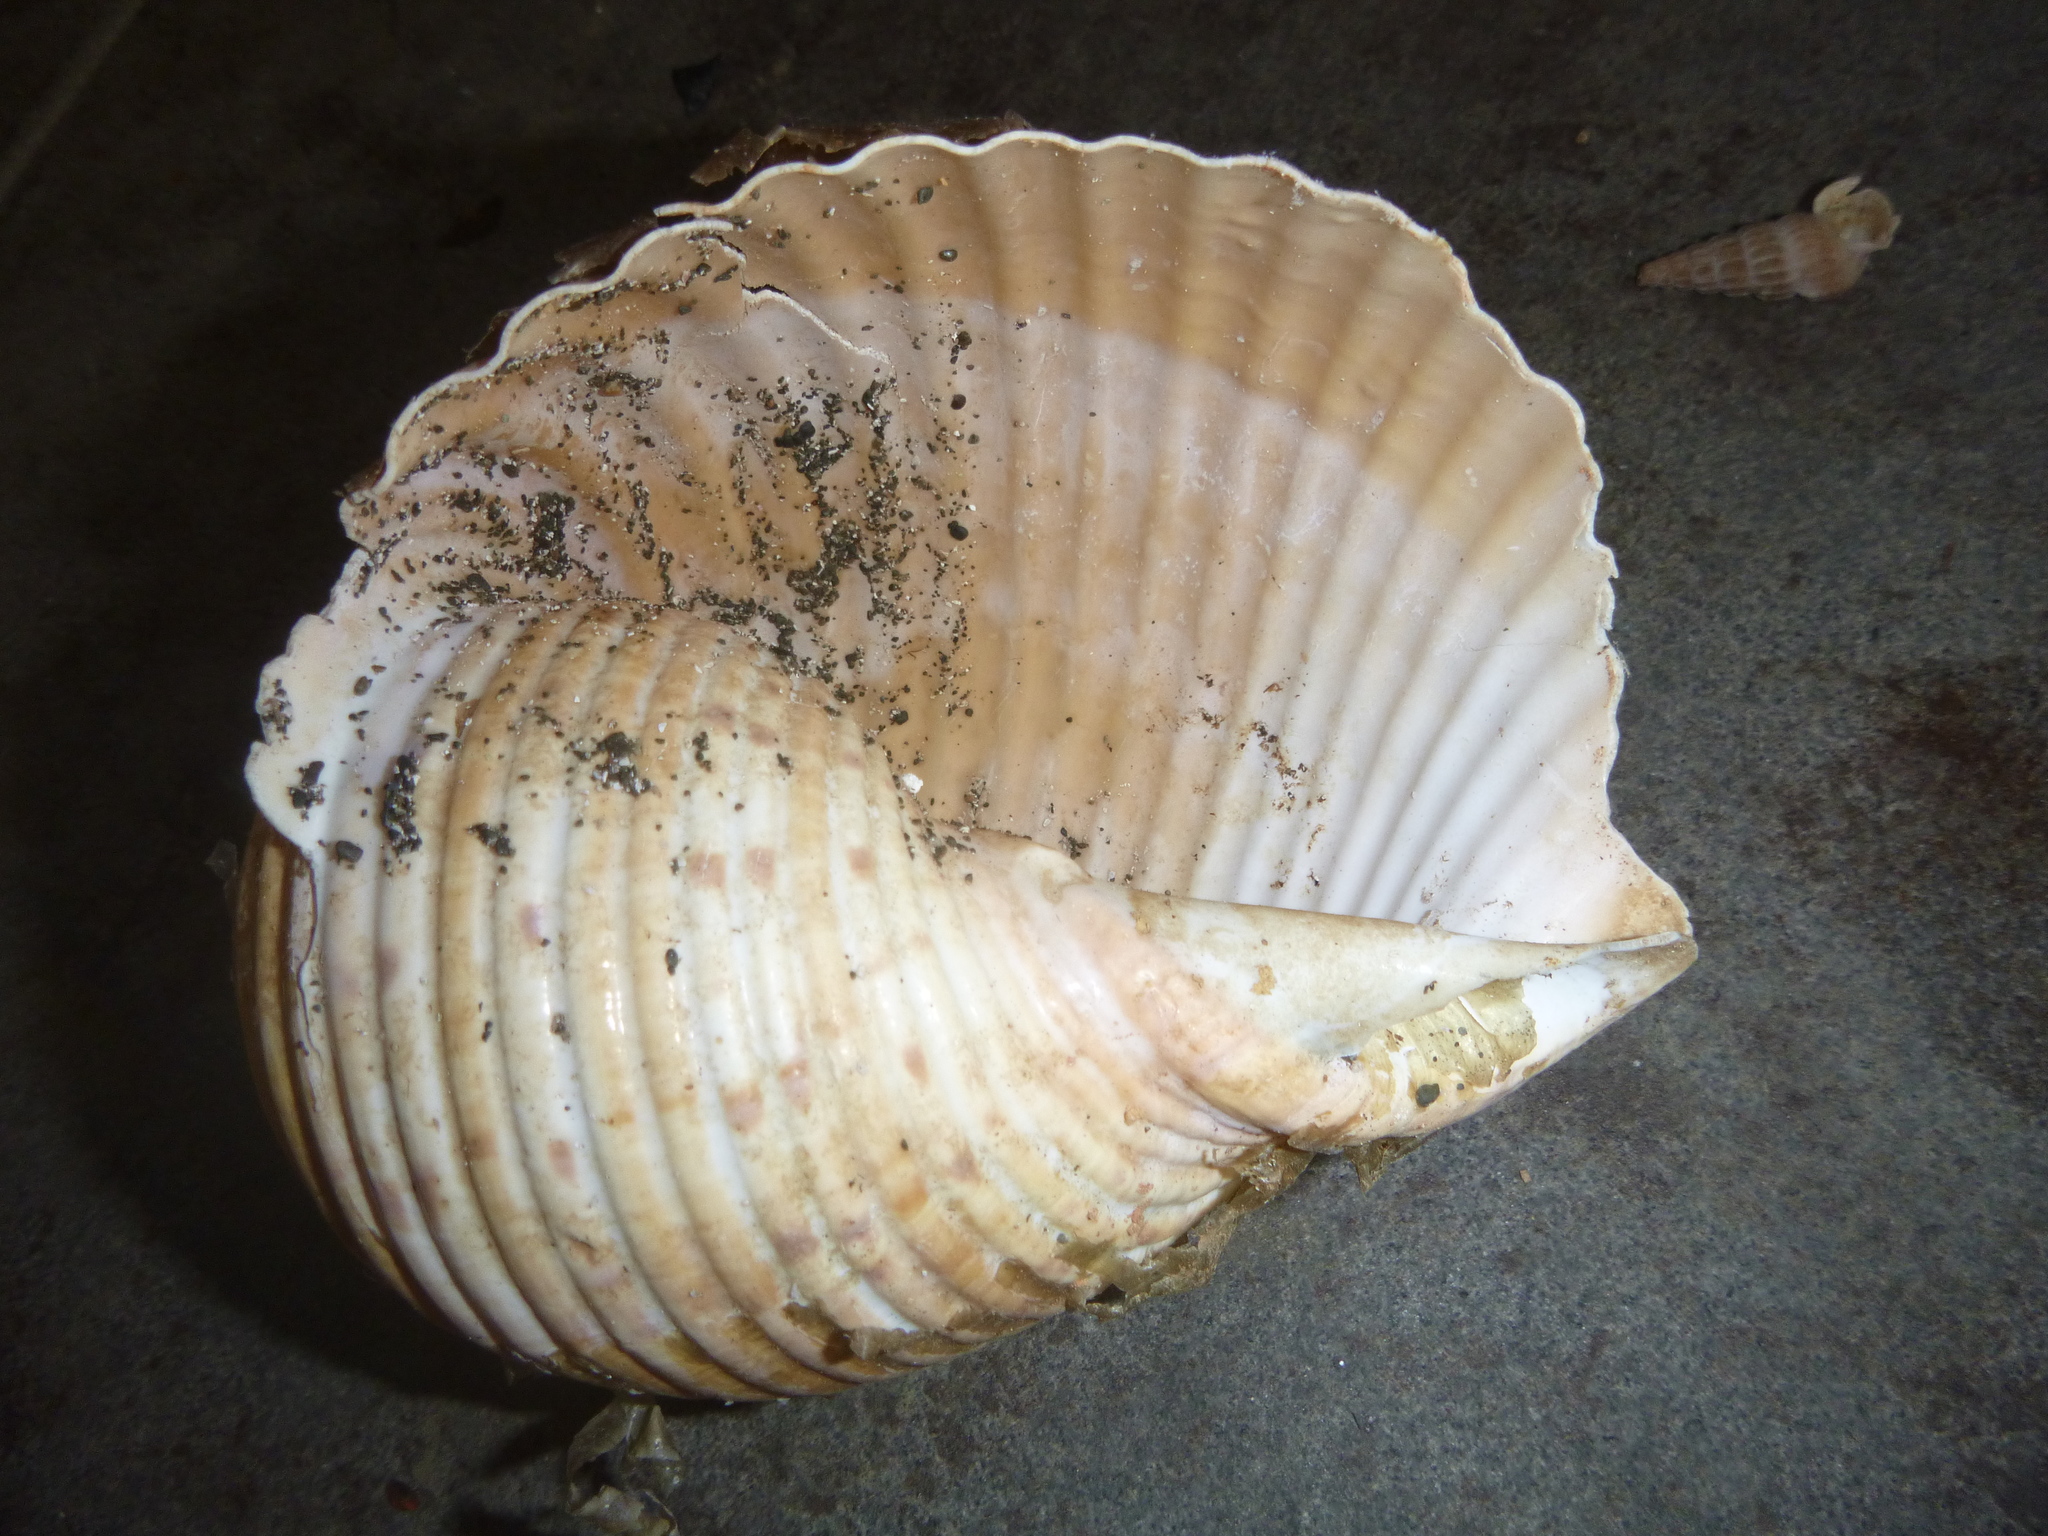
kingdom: Animalia
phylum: Mollusca
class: Gastropoda
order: Littorinimorpha
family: Tonnidae
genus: Tonna
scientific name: Tonna tankervillii
